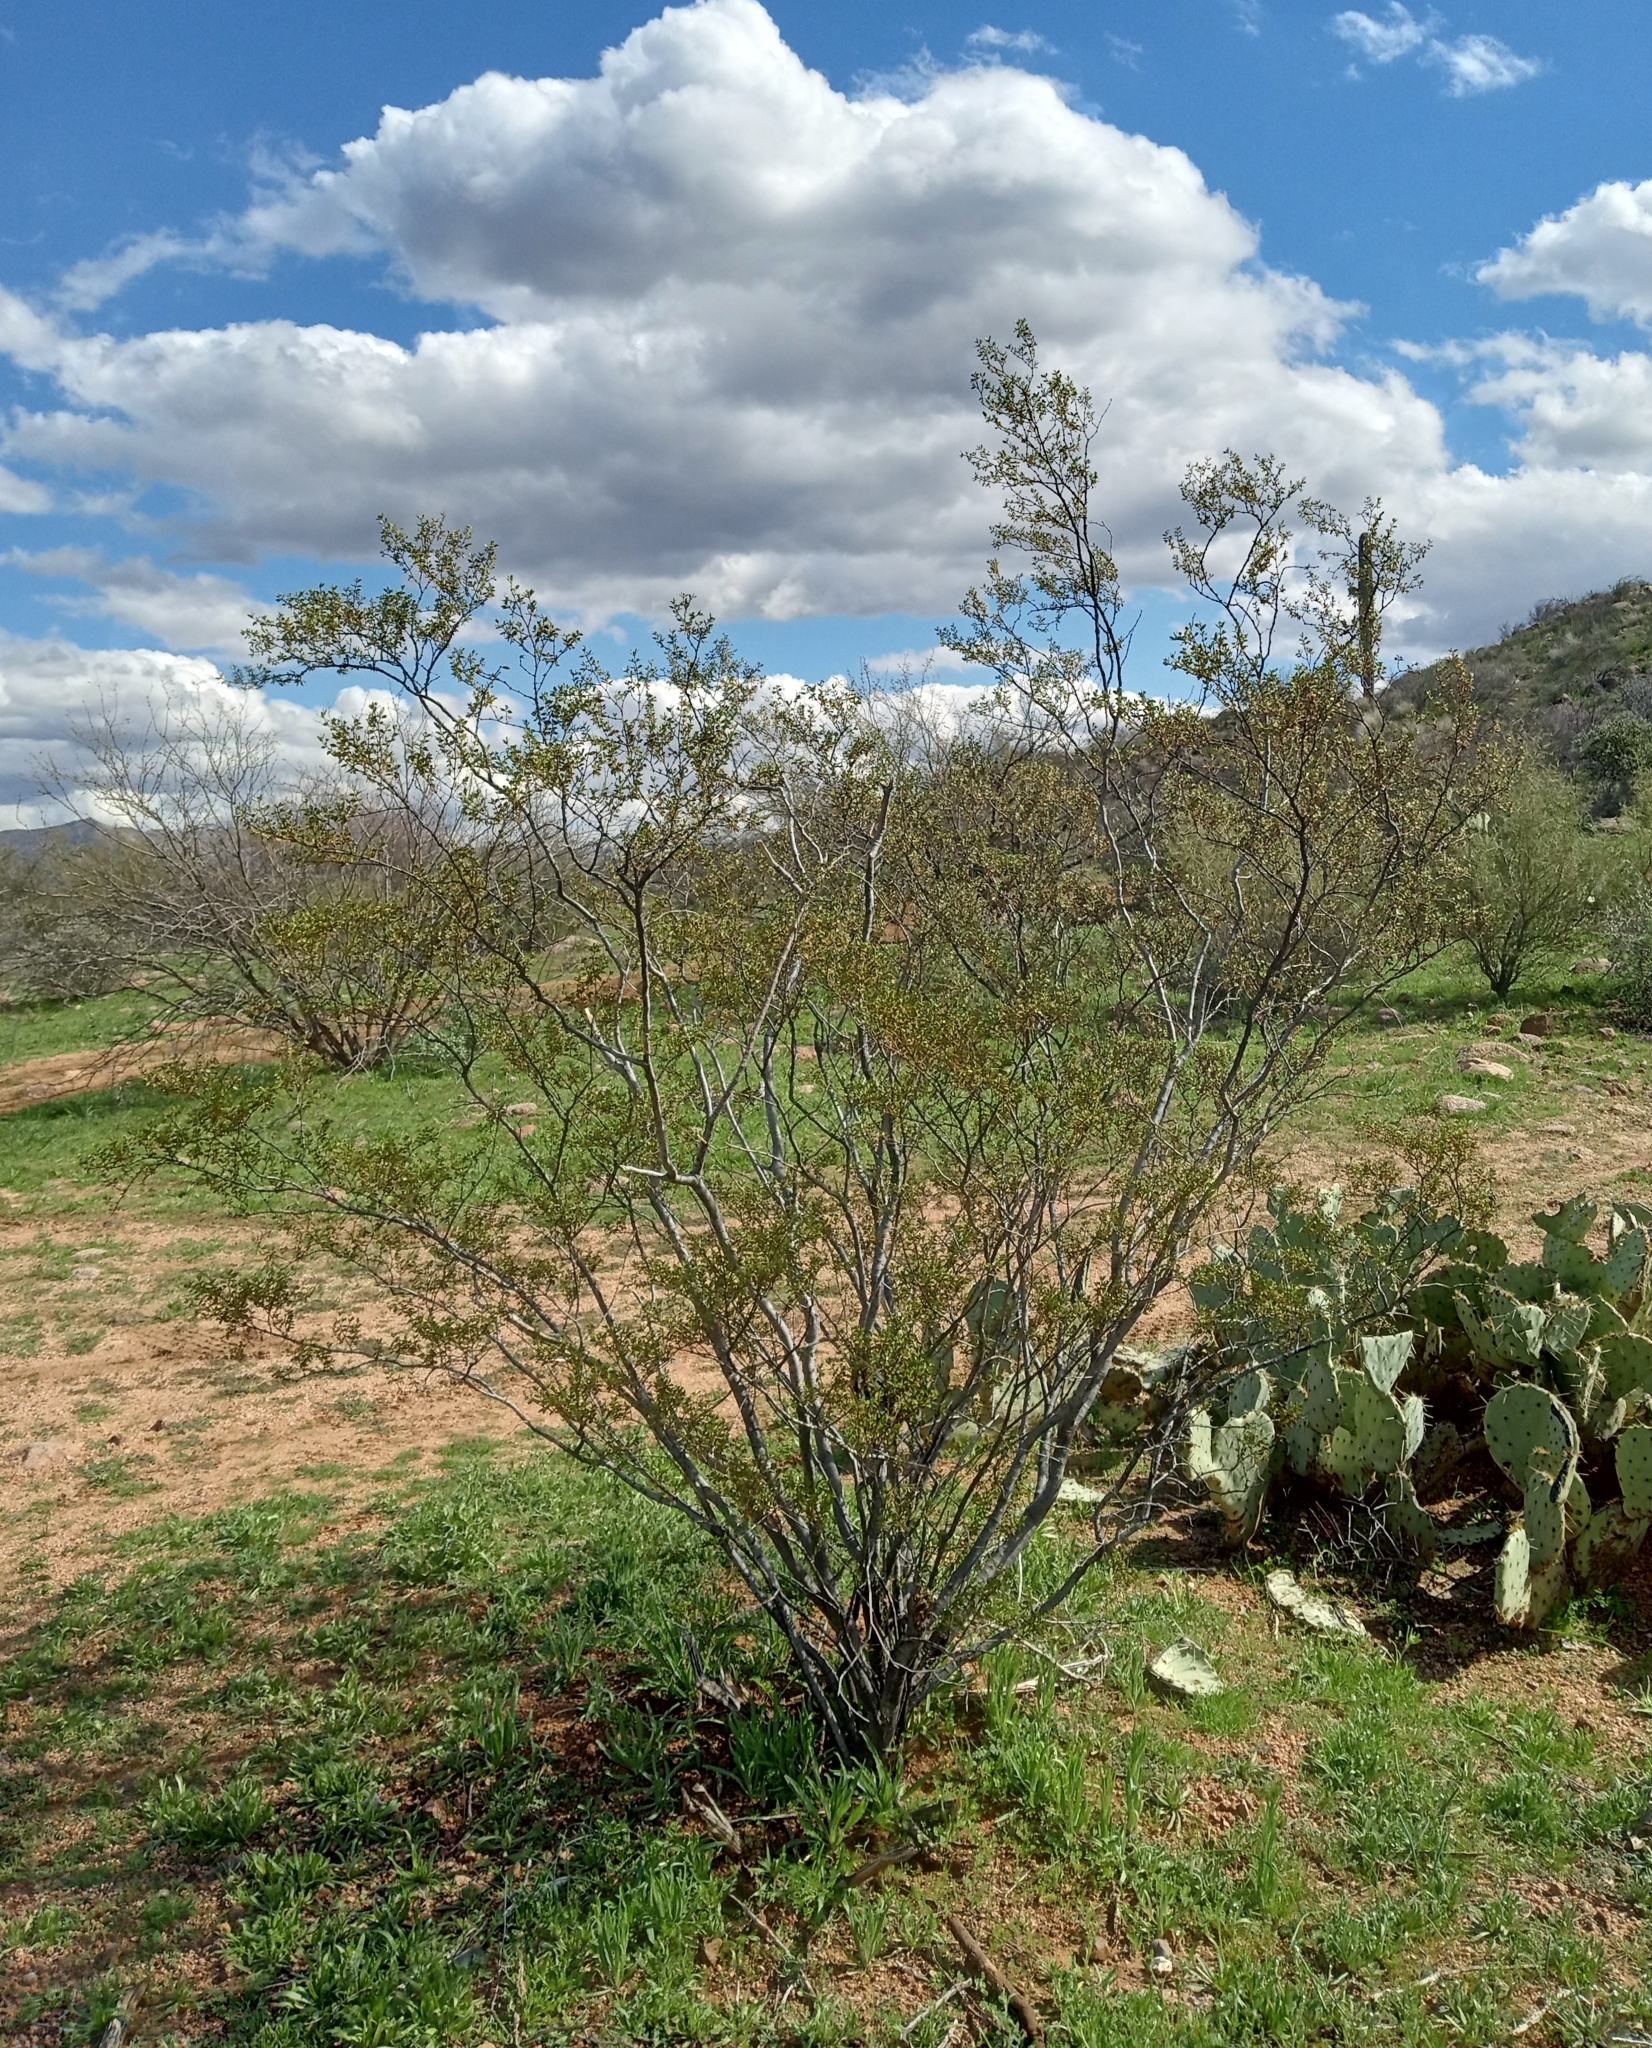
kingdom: Plantae
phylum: Tracheophyta
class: Magnoliopsida
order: Zygophyllales
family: Zygophyllaceae
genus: Larrea
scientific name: Larrea tridentata
